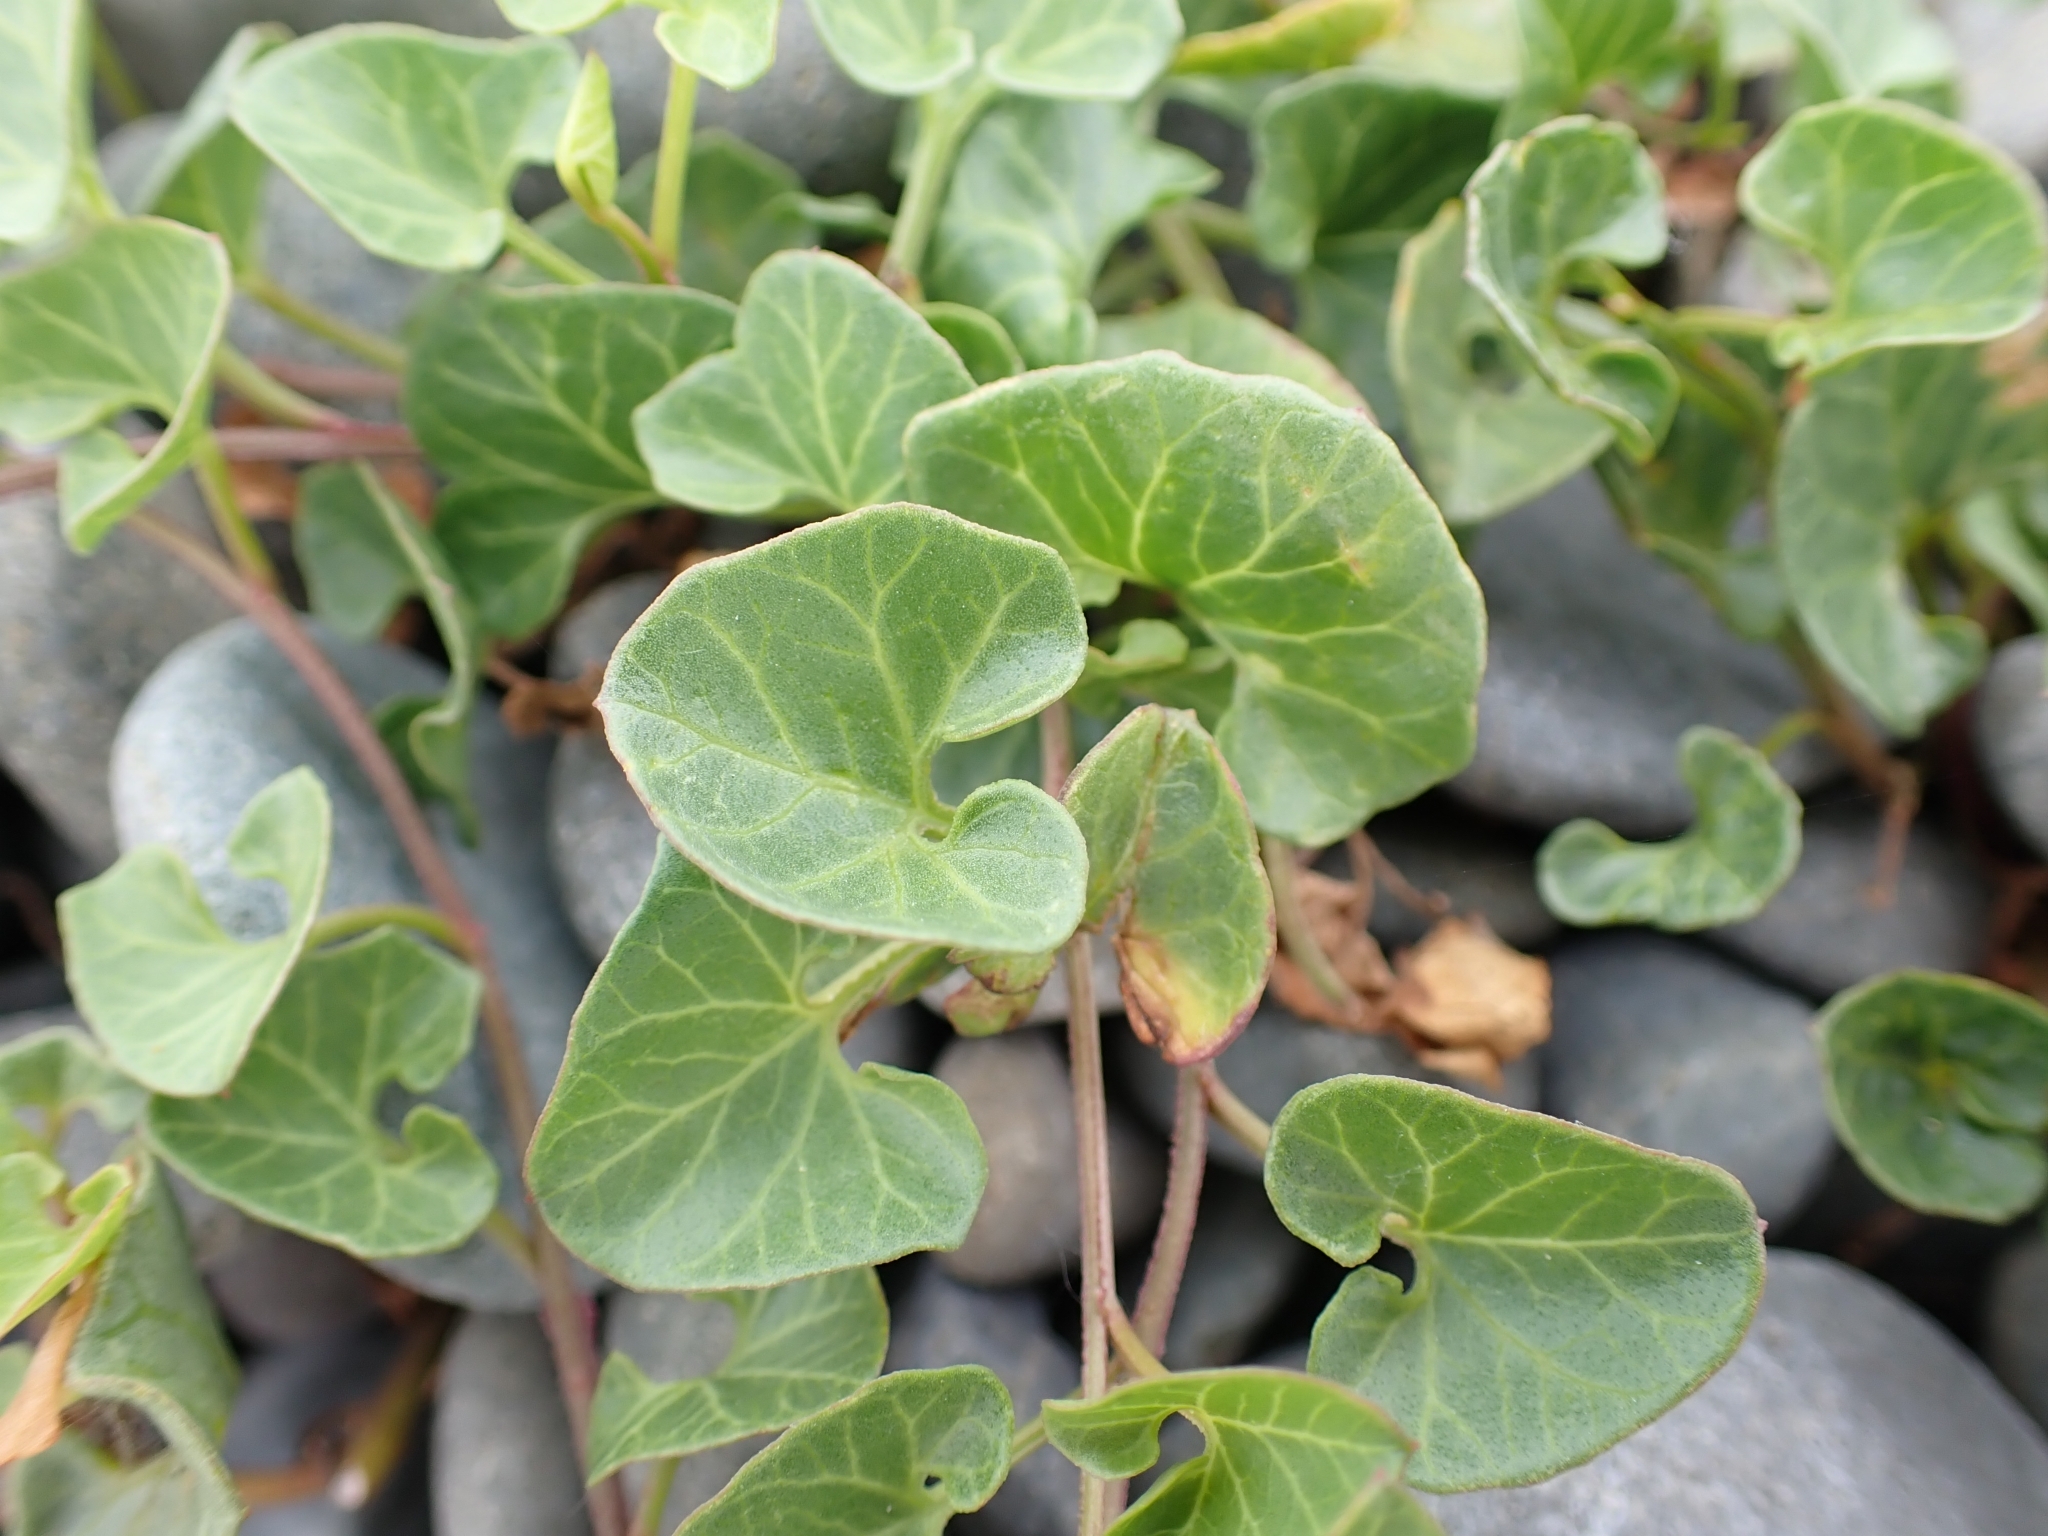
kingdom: Plantae
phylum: Tracheophyta
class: Magnoliopsida
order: Solanales
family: Convolvulaceae
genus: Calystegia
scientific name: Calystegia soldanella
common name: Sea bindweed
